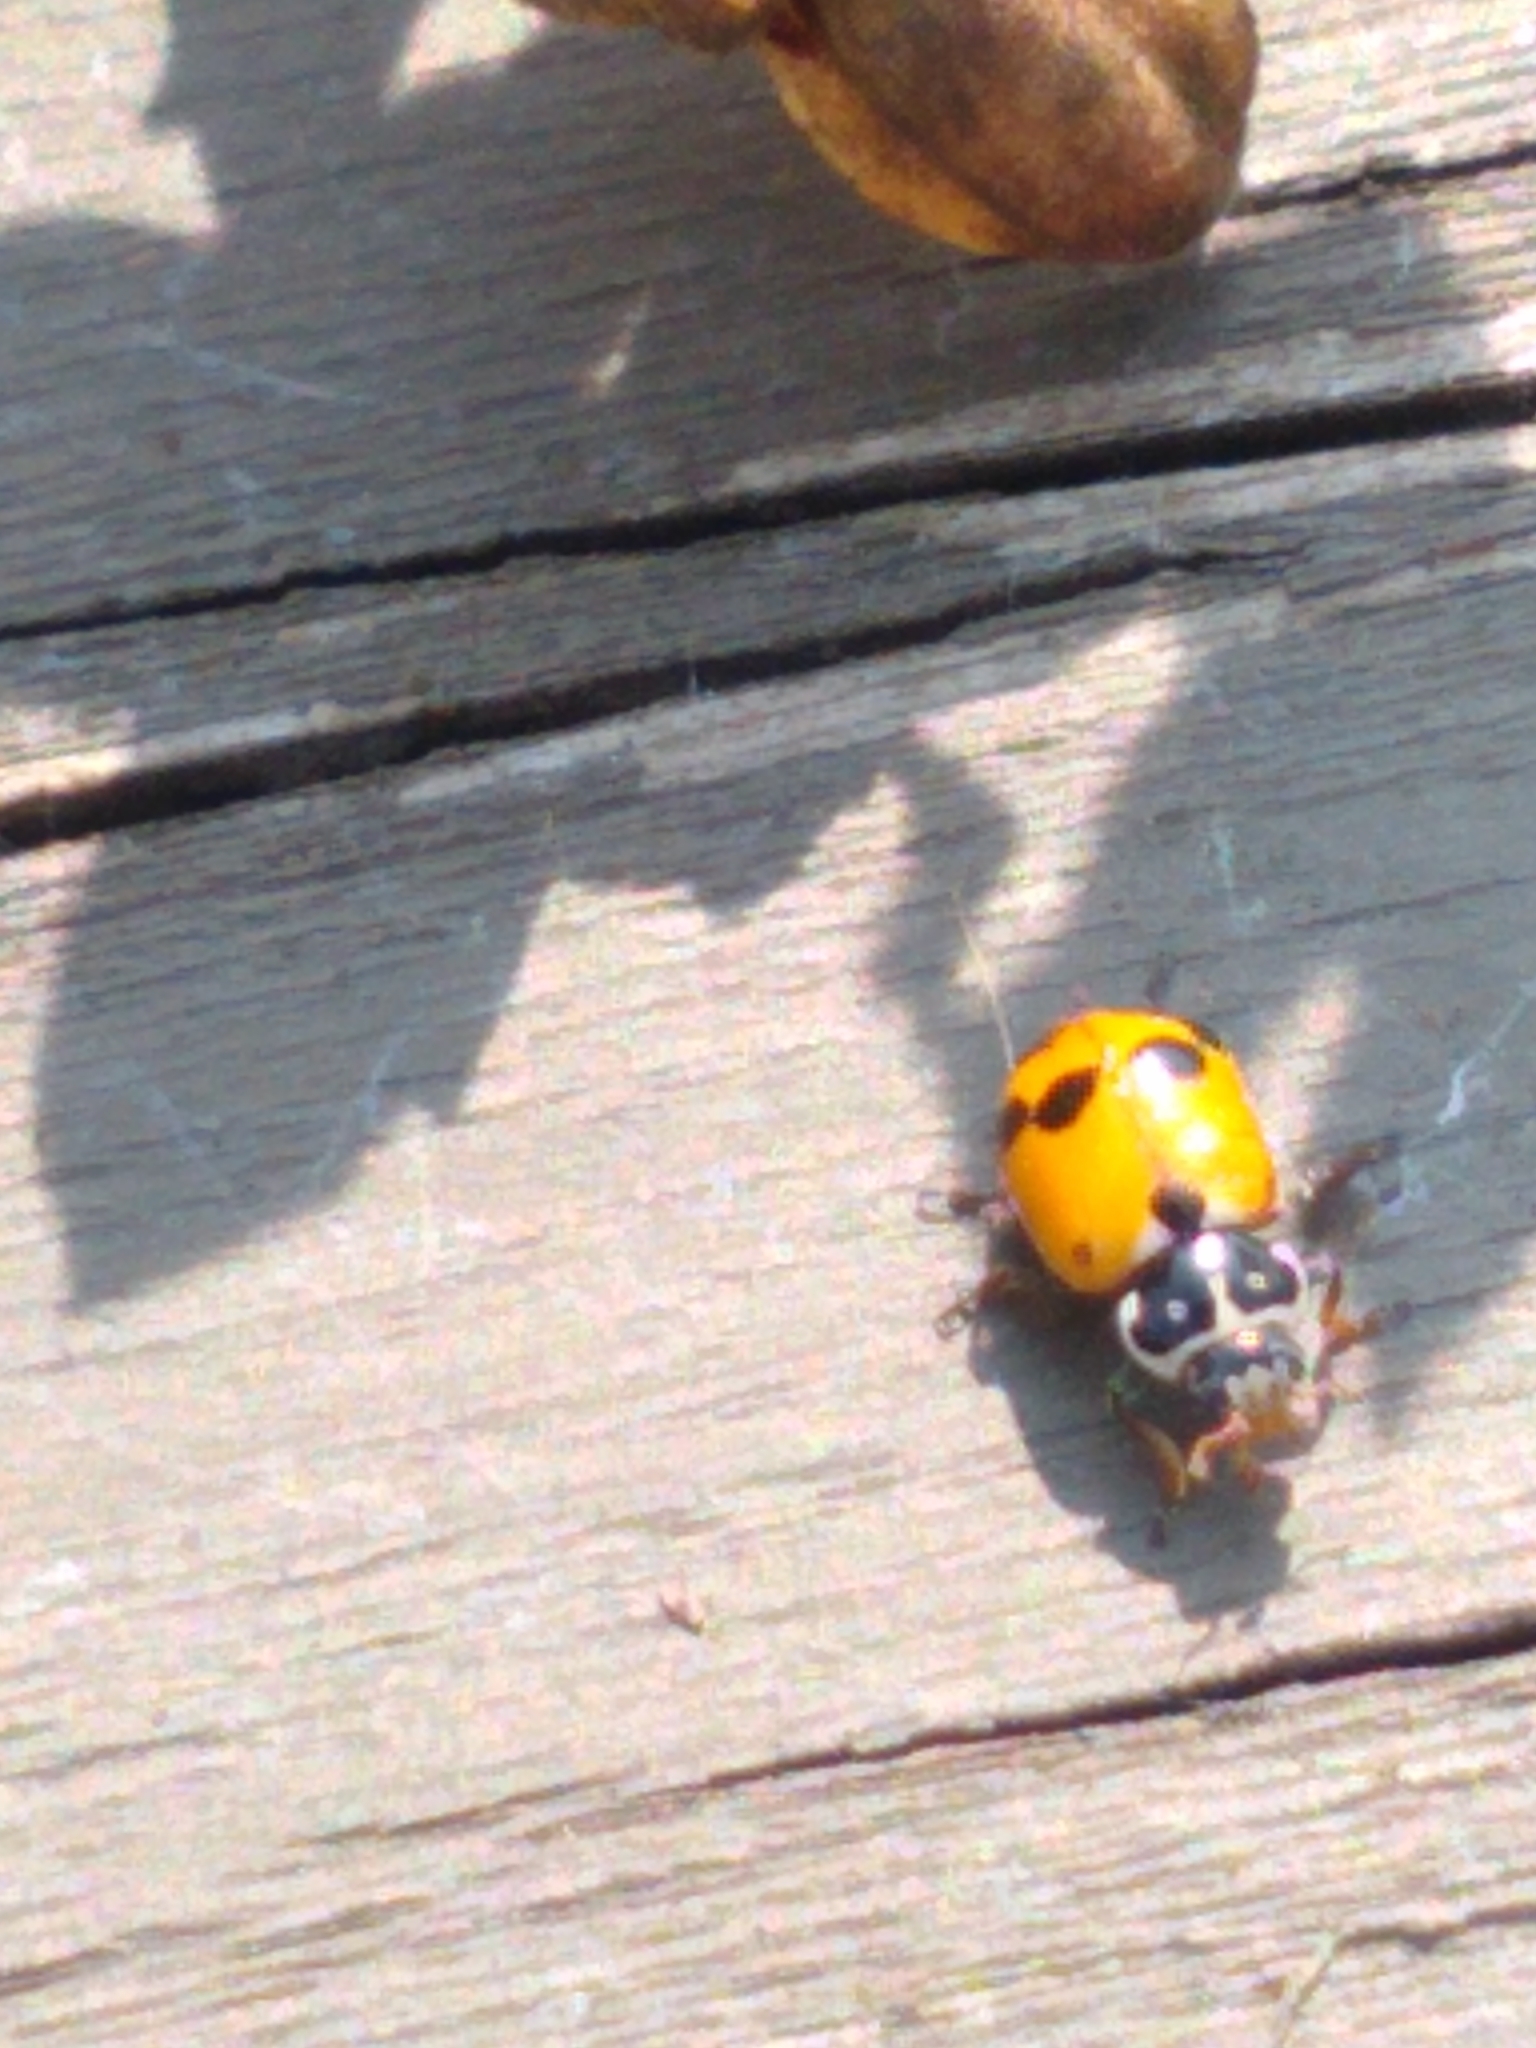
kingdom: Animalia
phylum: Arthropoda
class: Insecta
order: Coleoptera
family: Coccinellidae
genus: Hippodamia
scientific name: Hippodamia variegata
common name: Ladybird beetle
